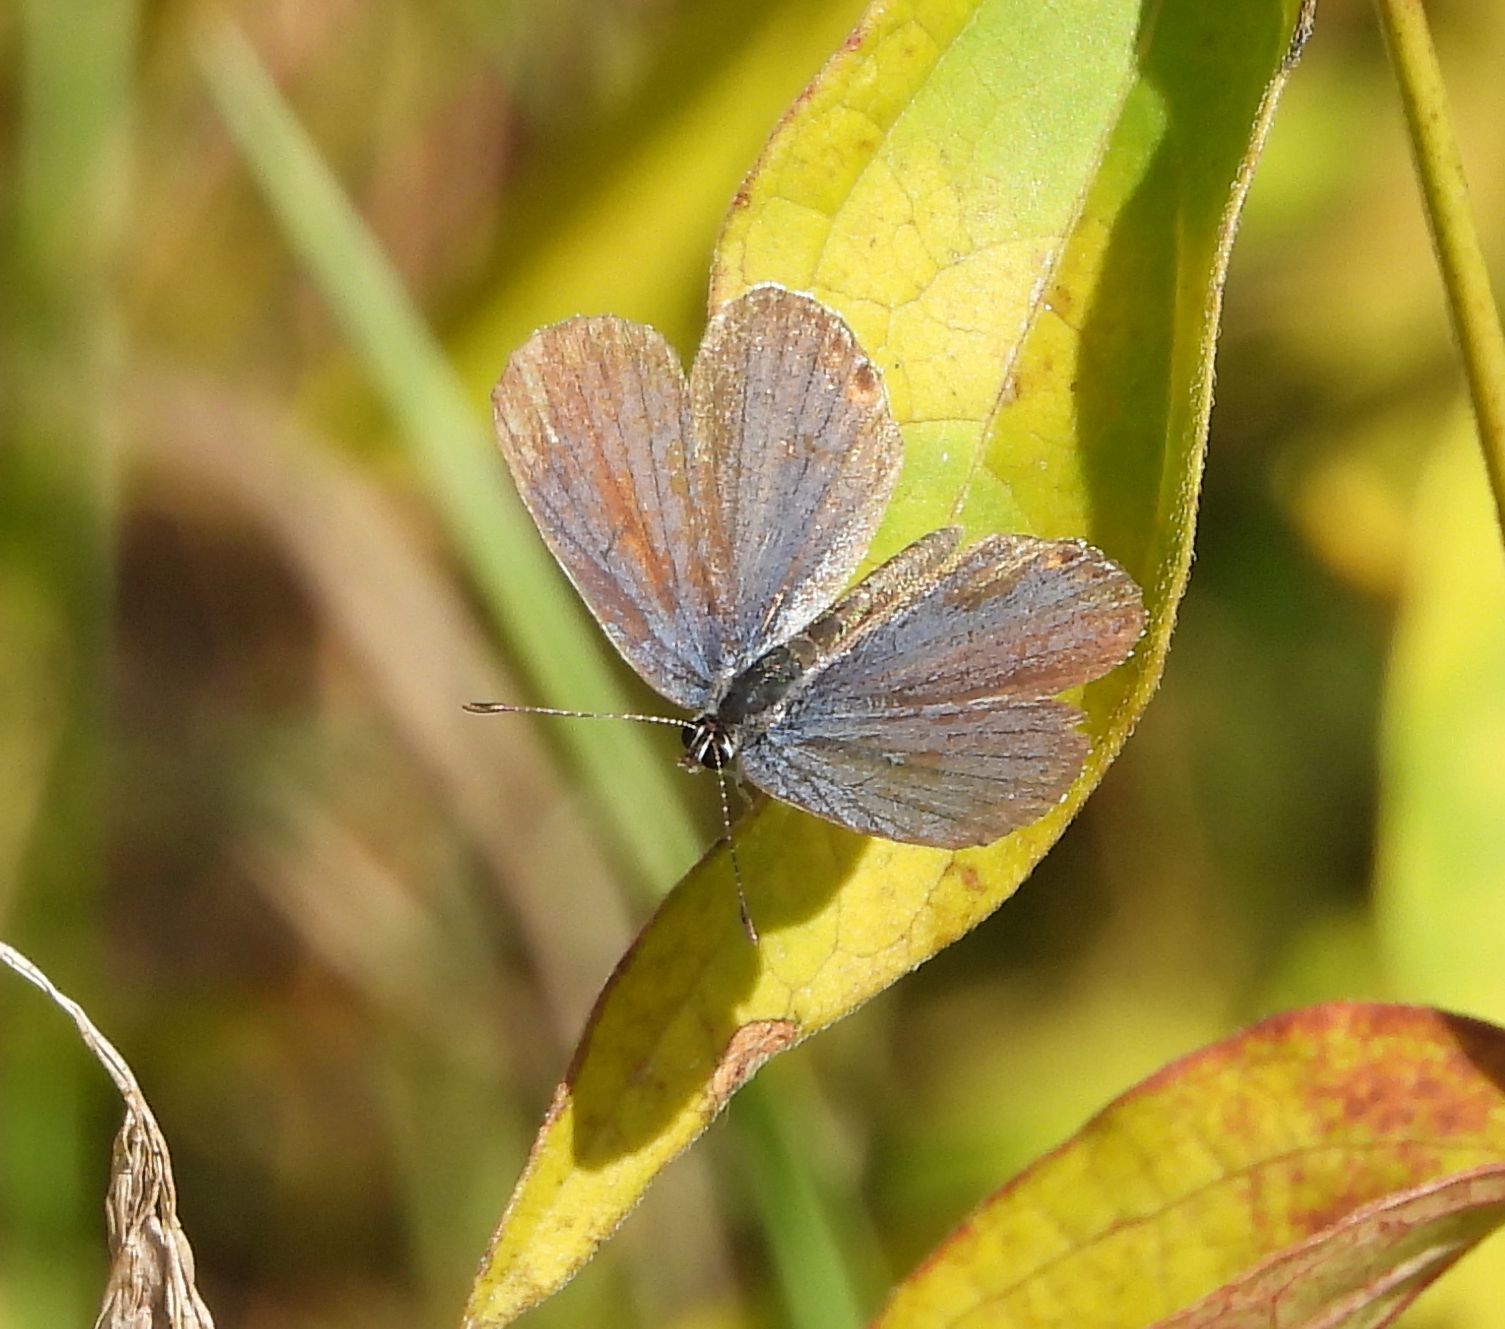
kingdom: Animalia
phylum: Arthropoda
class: Insecta
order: Lepidoptera
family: Lycaenidae
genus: Elkalyce
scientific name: Elkalyce comyntas
